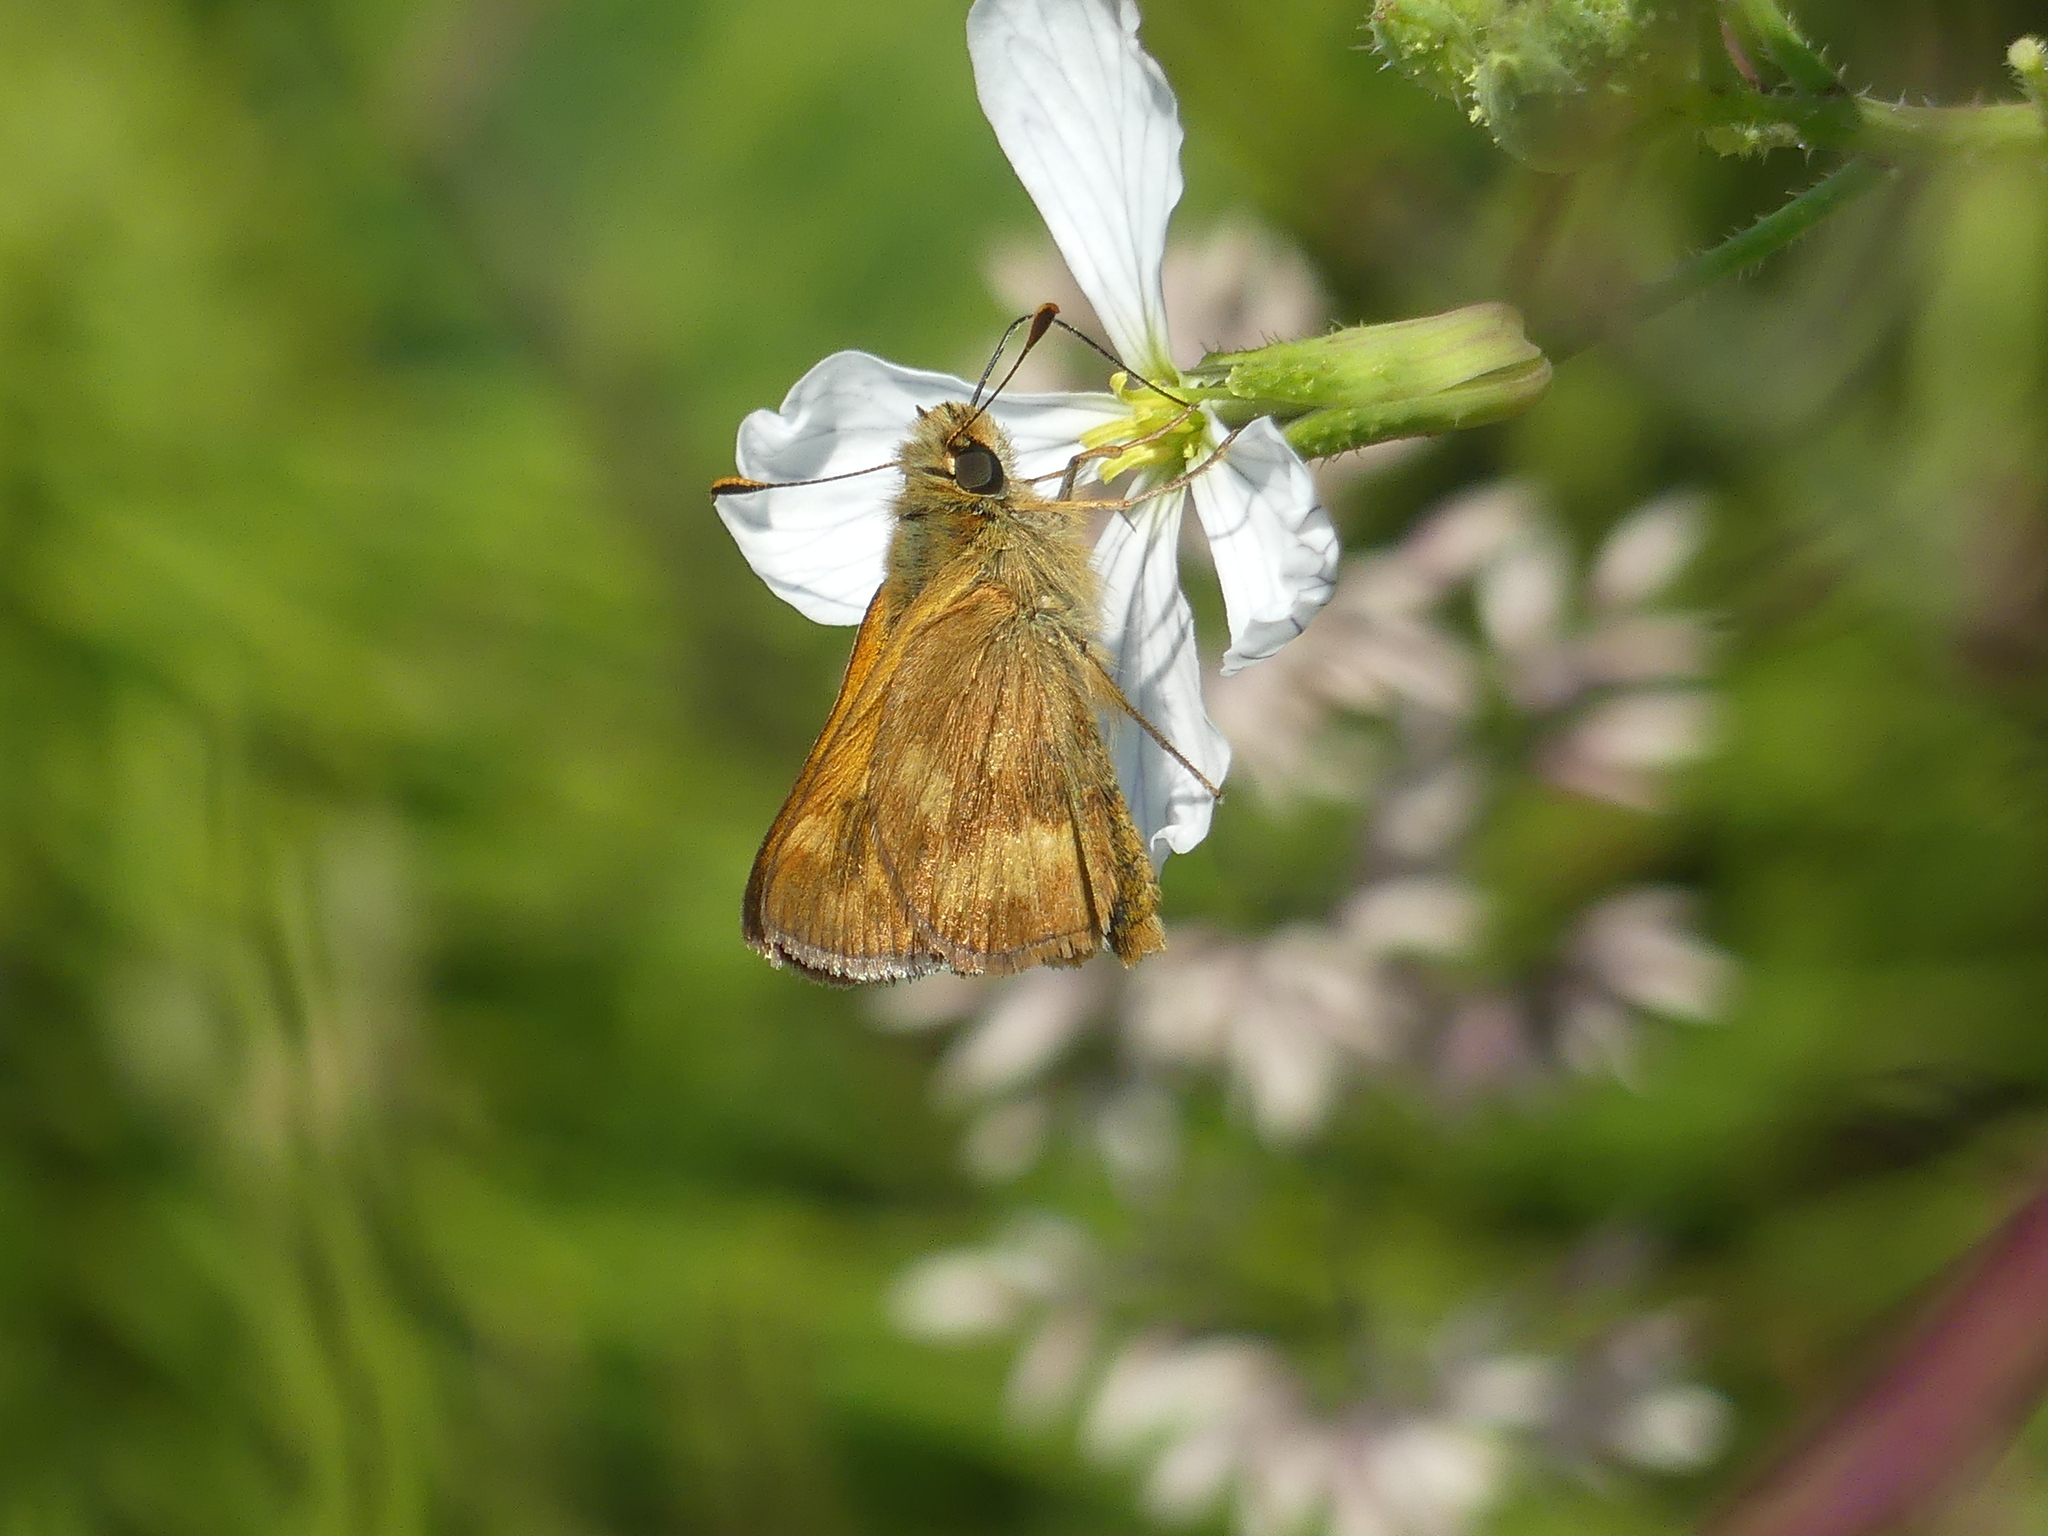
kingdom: Animalia
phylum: Arthropoda
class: Insecta
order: Lepidoptera
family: Hesperiidae
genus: Ochlodes
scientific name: Ochlodes sylvanoides
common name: Woodland skipper
